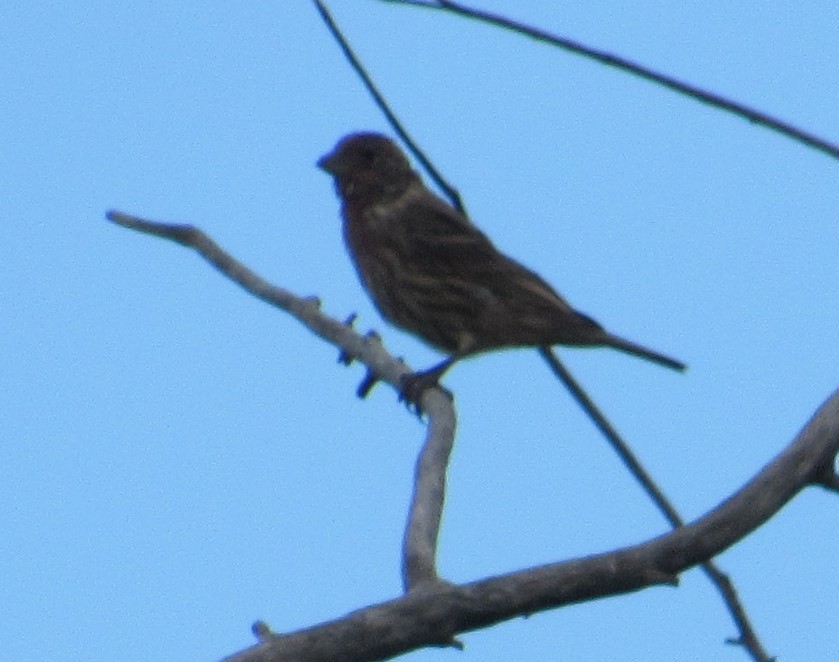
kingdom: Animalia
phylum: Chordata
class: Aves
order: Passeriformes
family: Fringillidae
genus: Haemorhous
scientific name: Haemorhous mexicanus
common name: House finch
